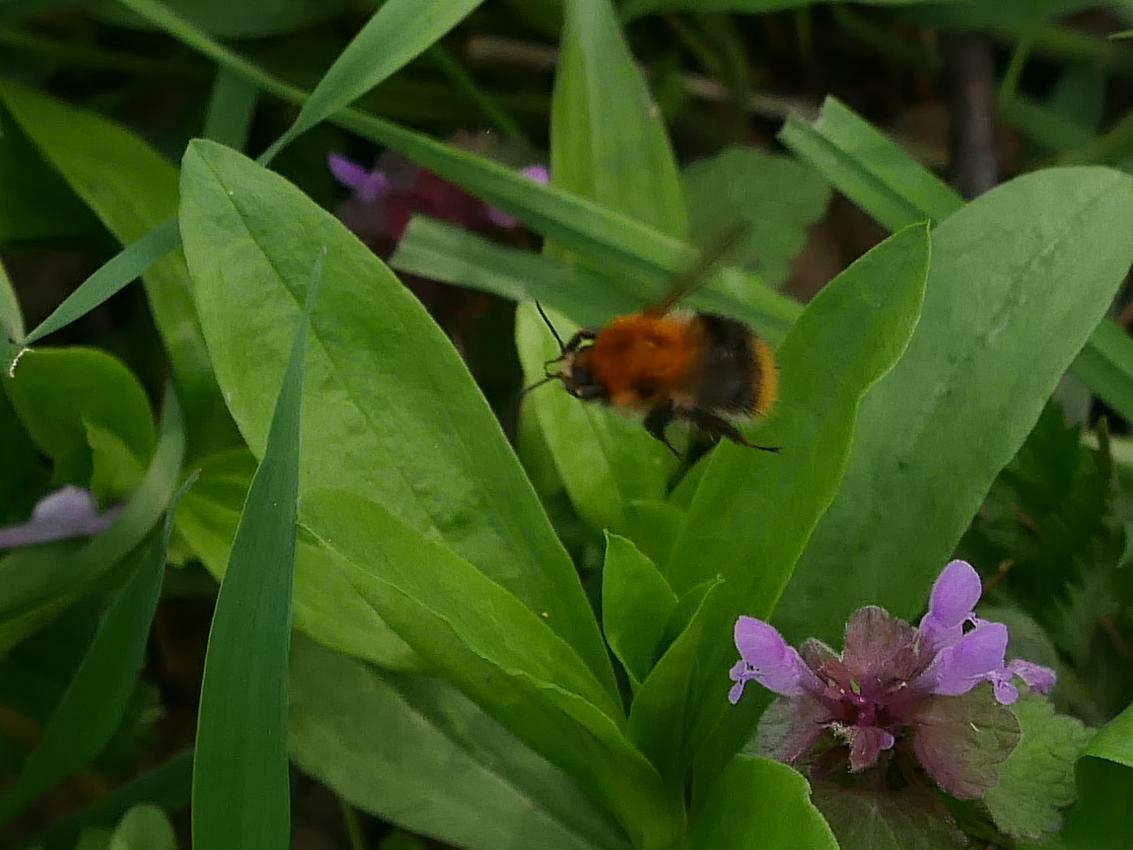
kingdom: Animalia
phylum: Arthropoda
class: Insecta
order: Hymenoptera
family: Apidae
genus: Bombus
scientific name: Bombus pascuorum
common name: Common carder bee
